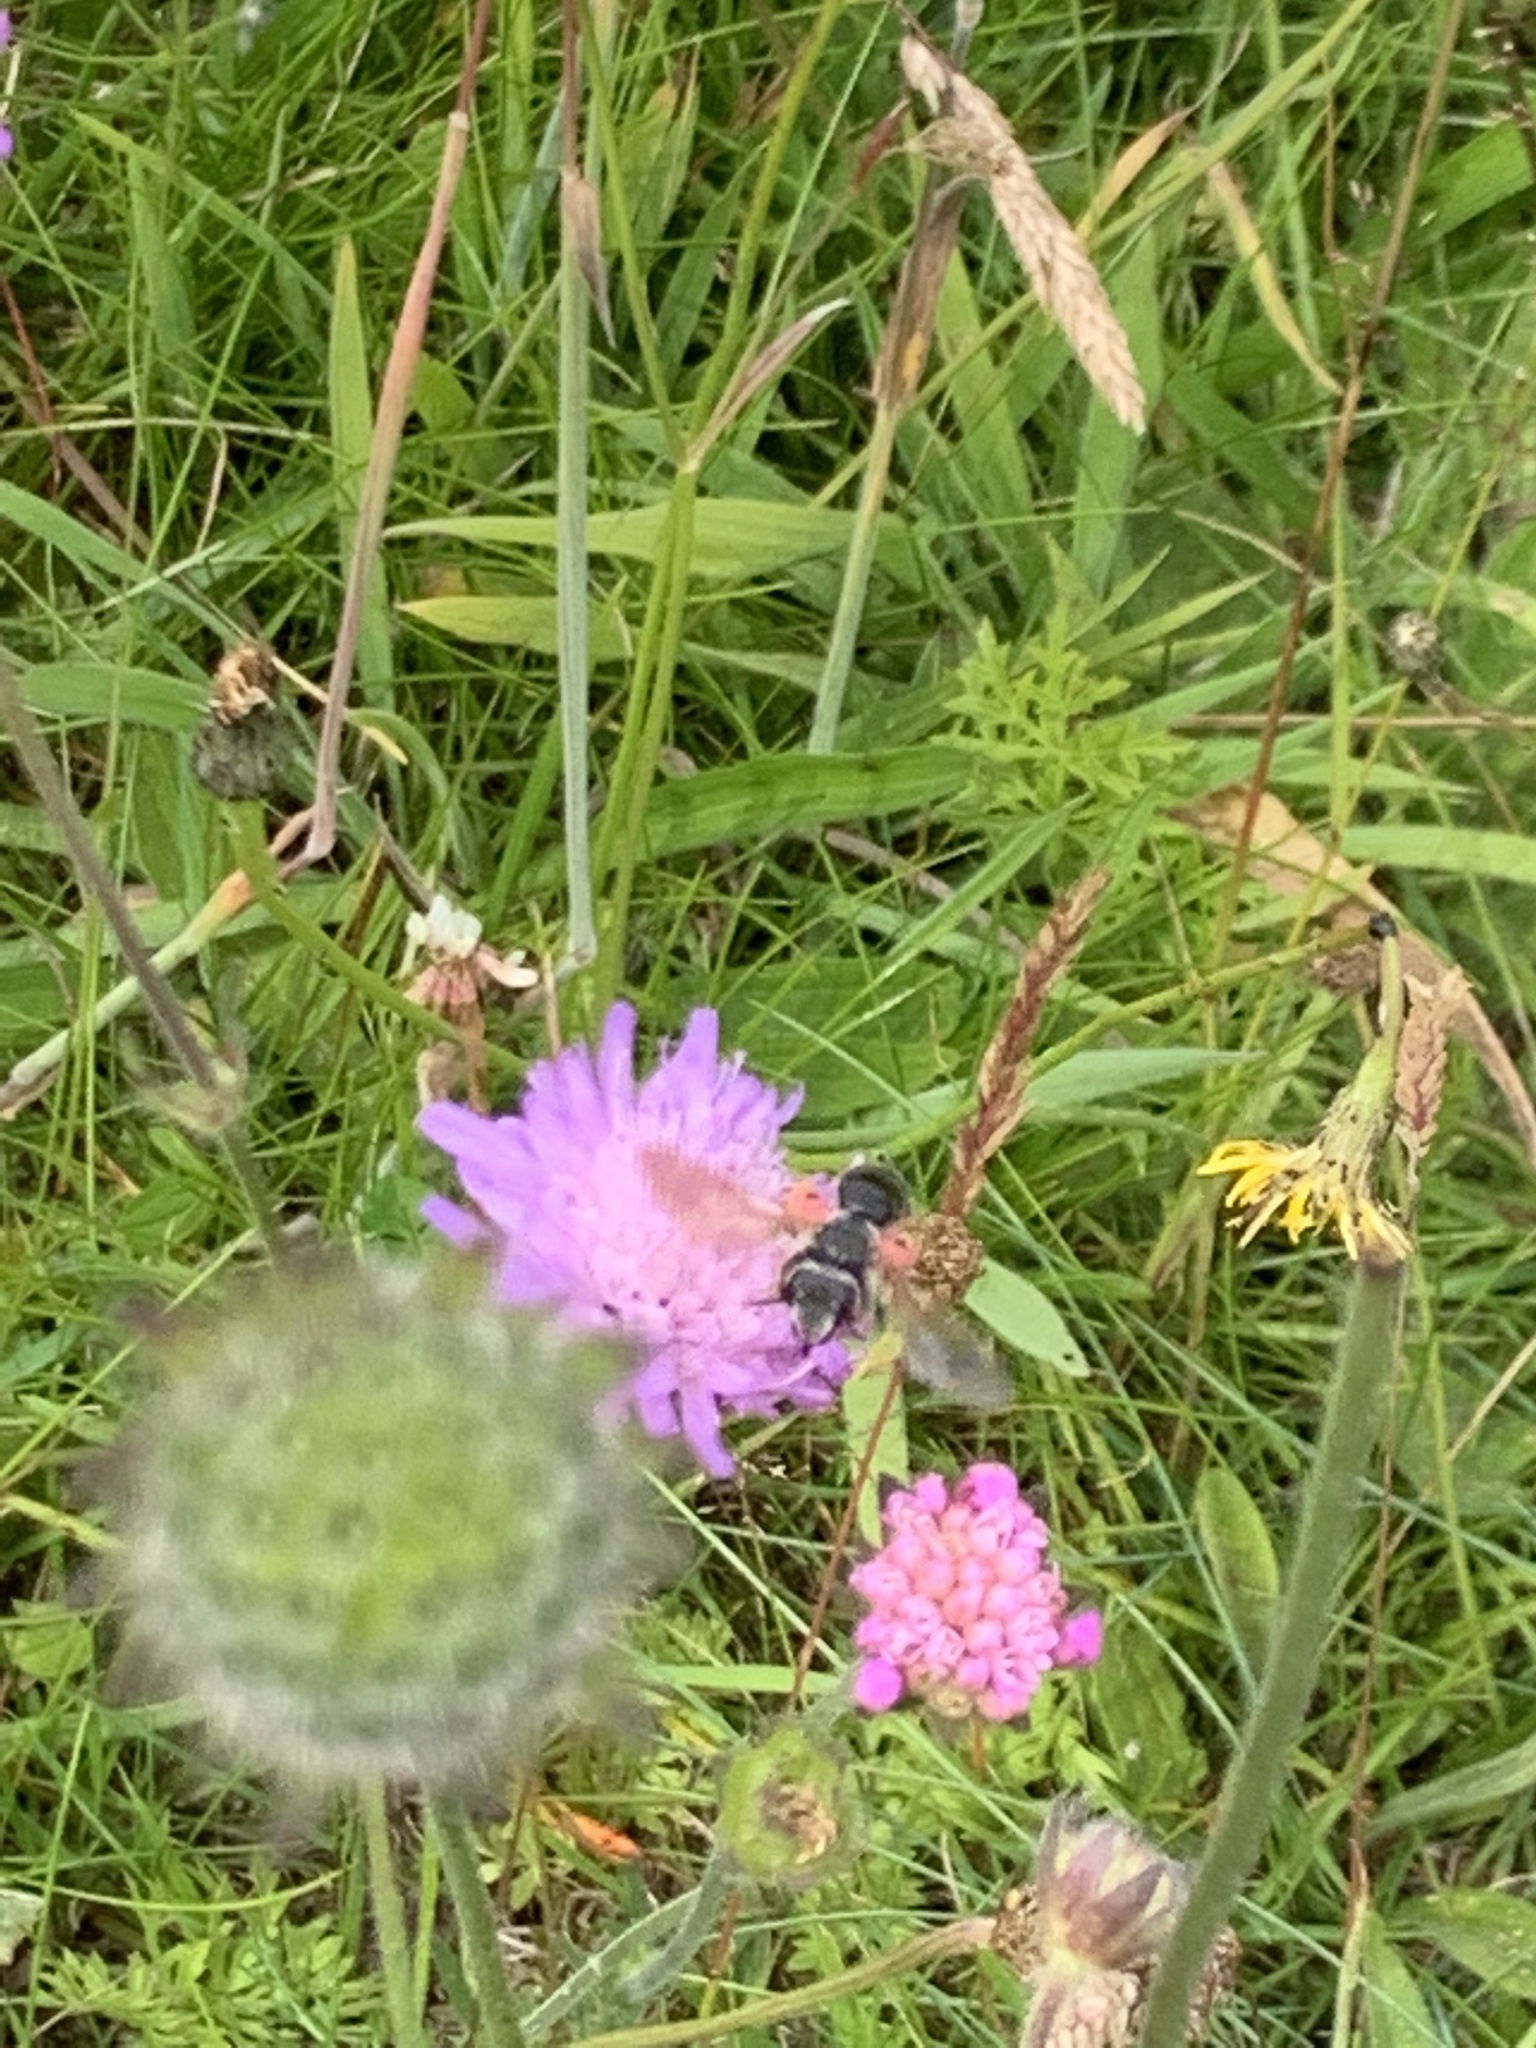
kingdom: Animalia
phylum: Arthropoda
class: Insecta
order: Hymenoptera
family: Andrenidae
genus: Andrena
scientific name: Andrena hattorfiana
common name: Large scabious mining bee
